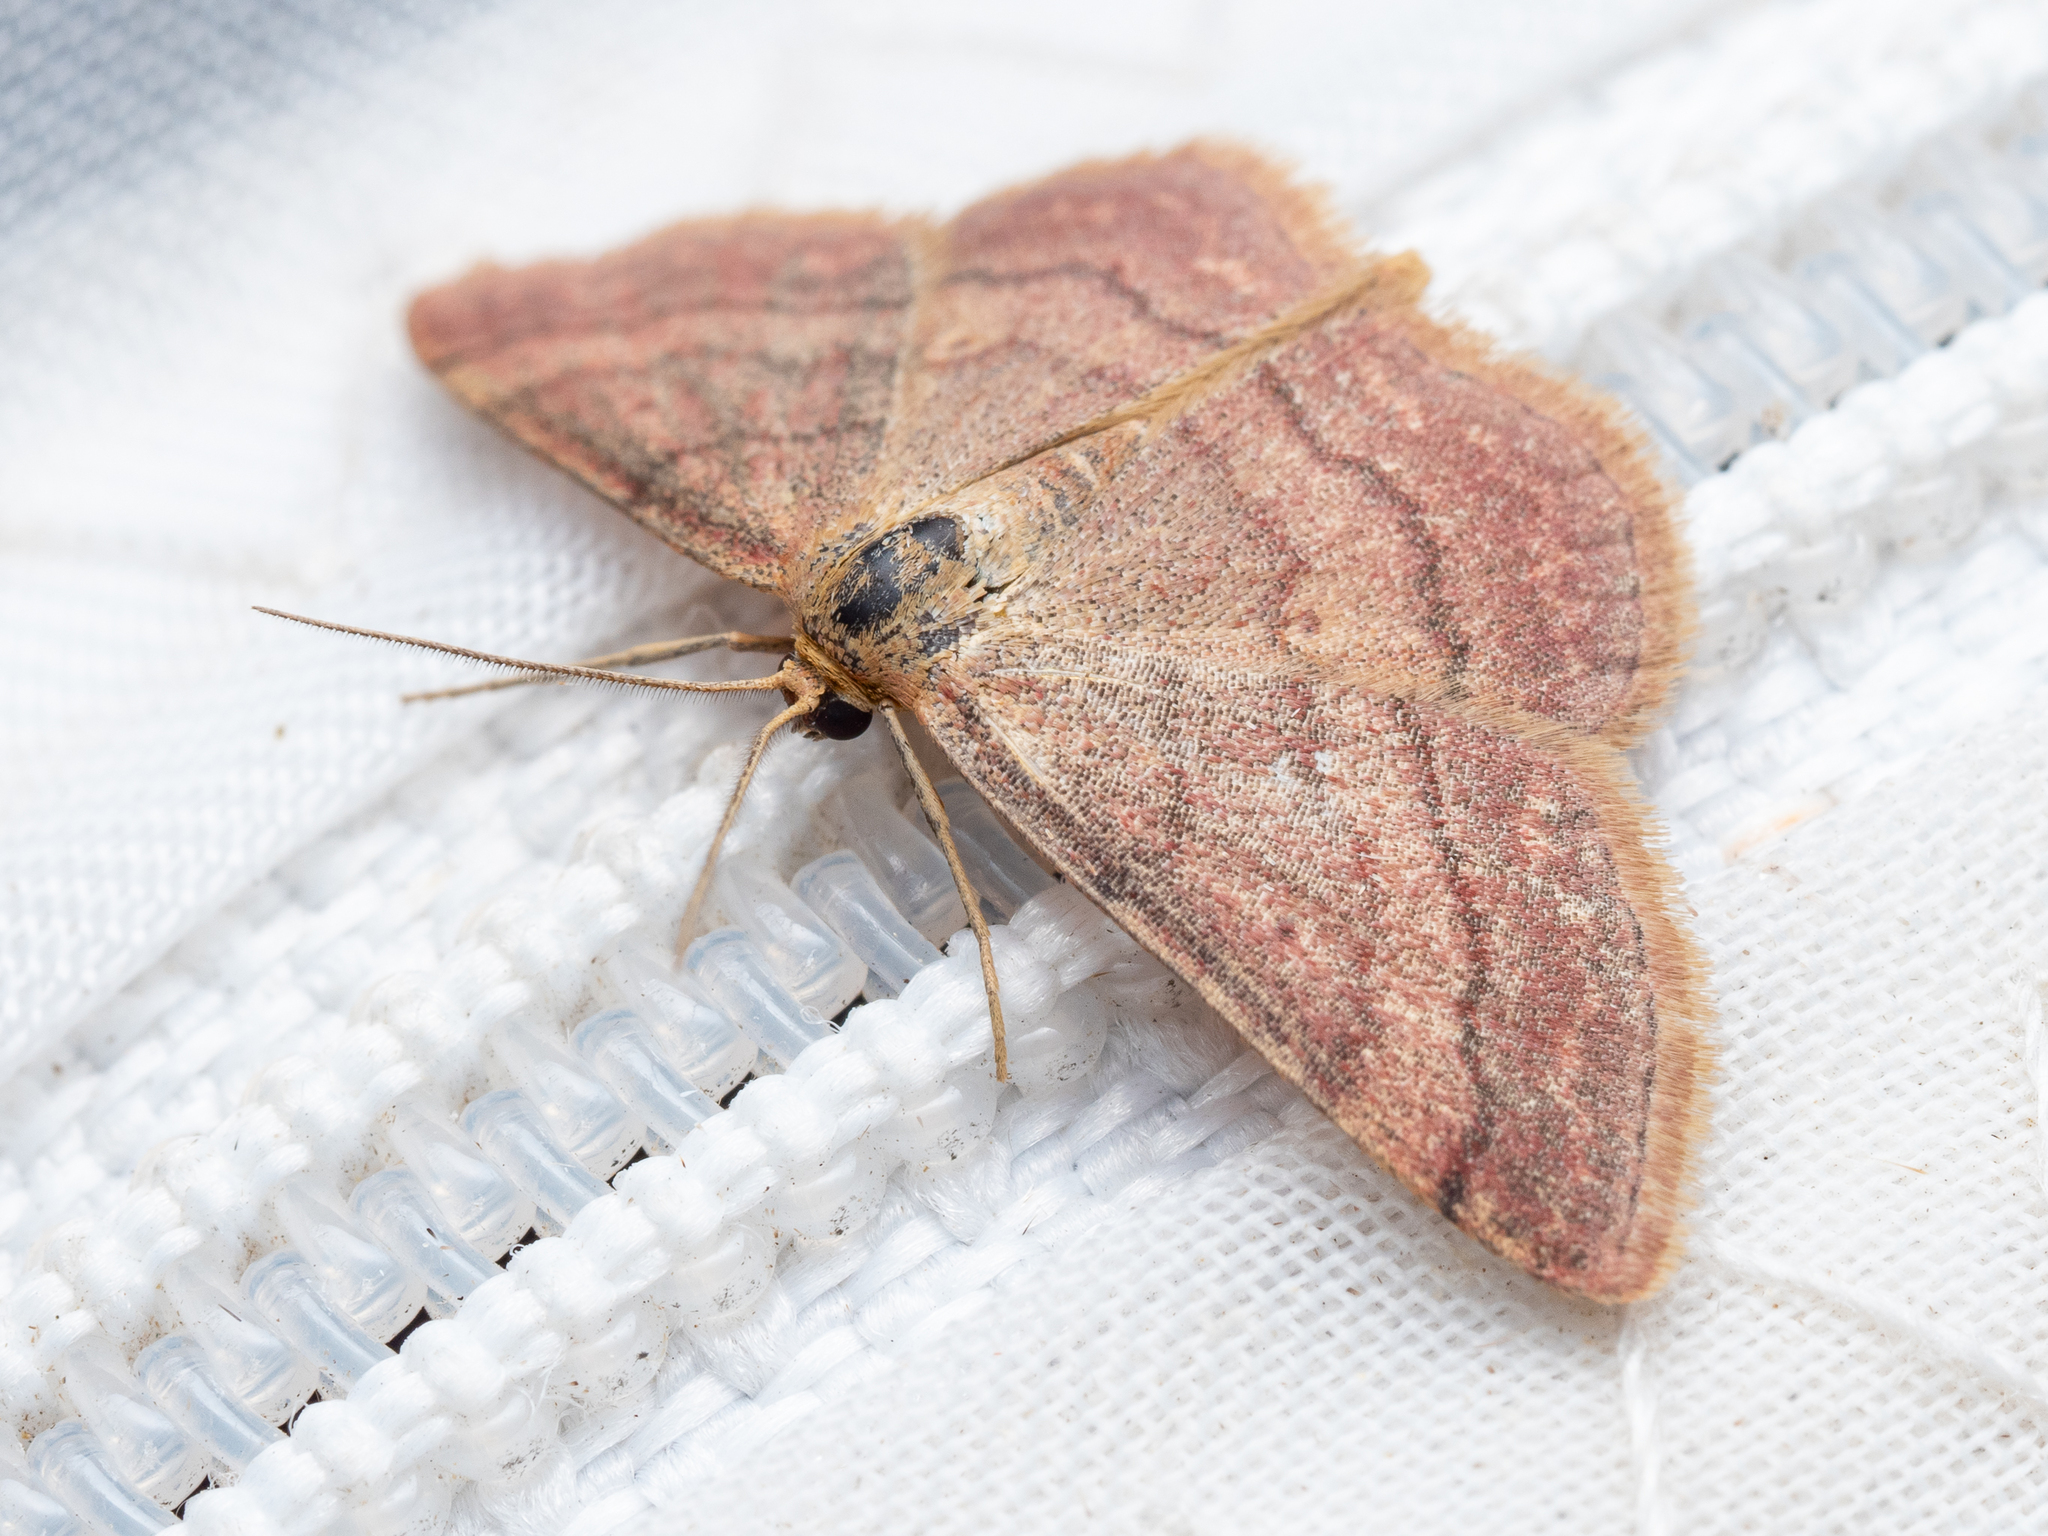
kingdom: Animalia
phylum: Arthropoda
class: Insecta
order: Lepidoptera
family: Geometridae
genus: Scopula
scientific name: Scopula rubiginata
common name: Tawny wave
